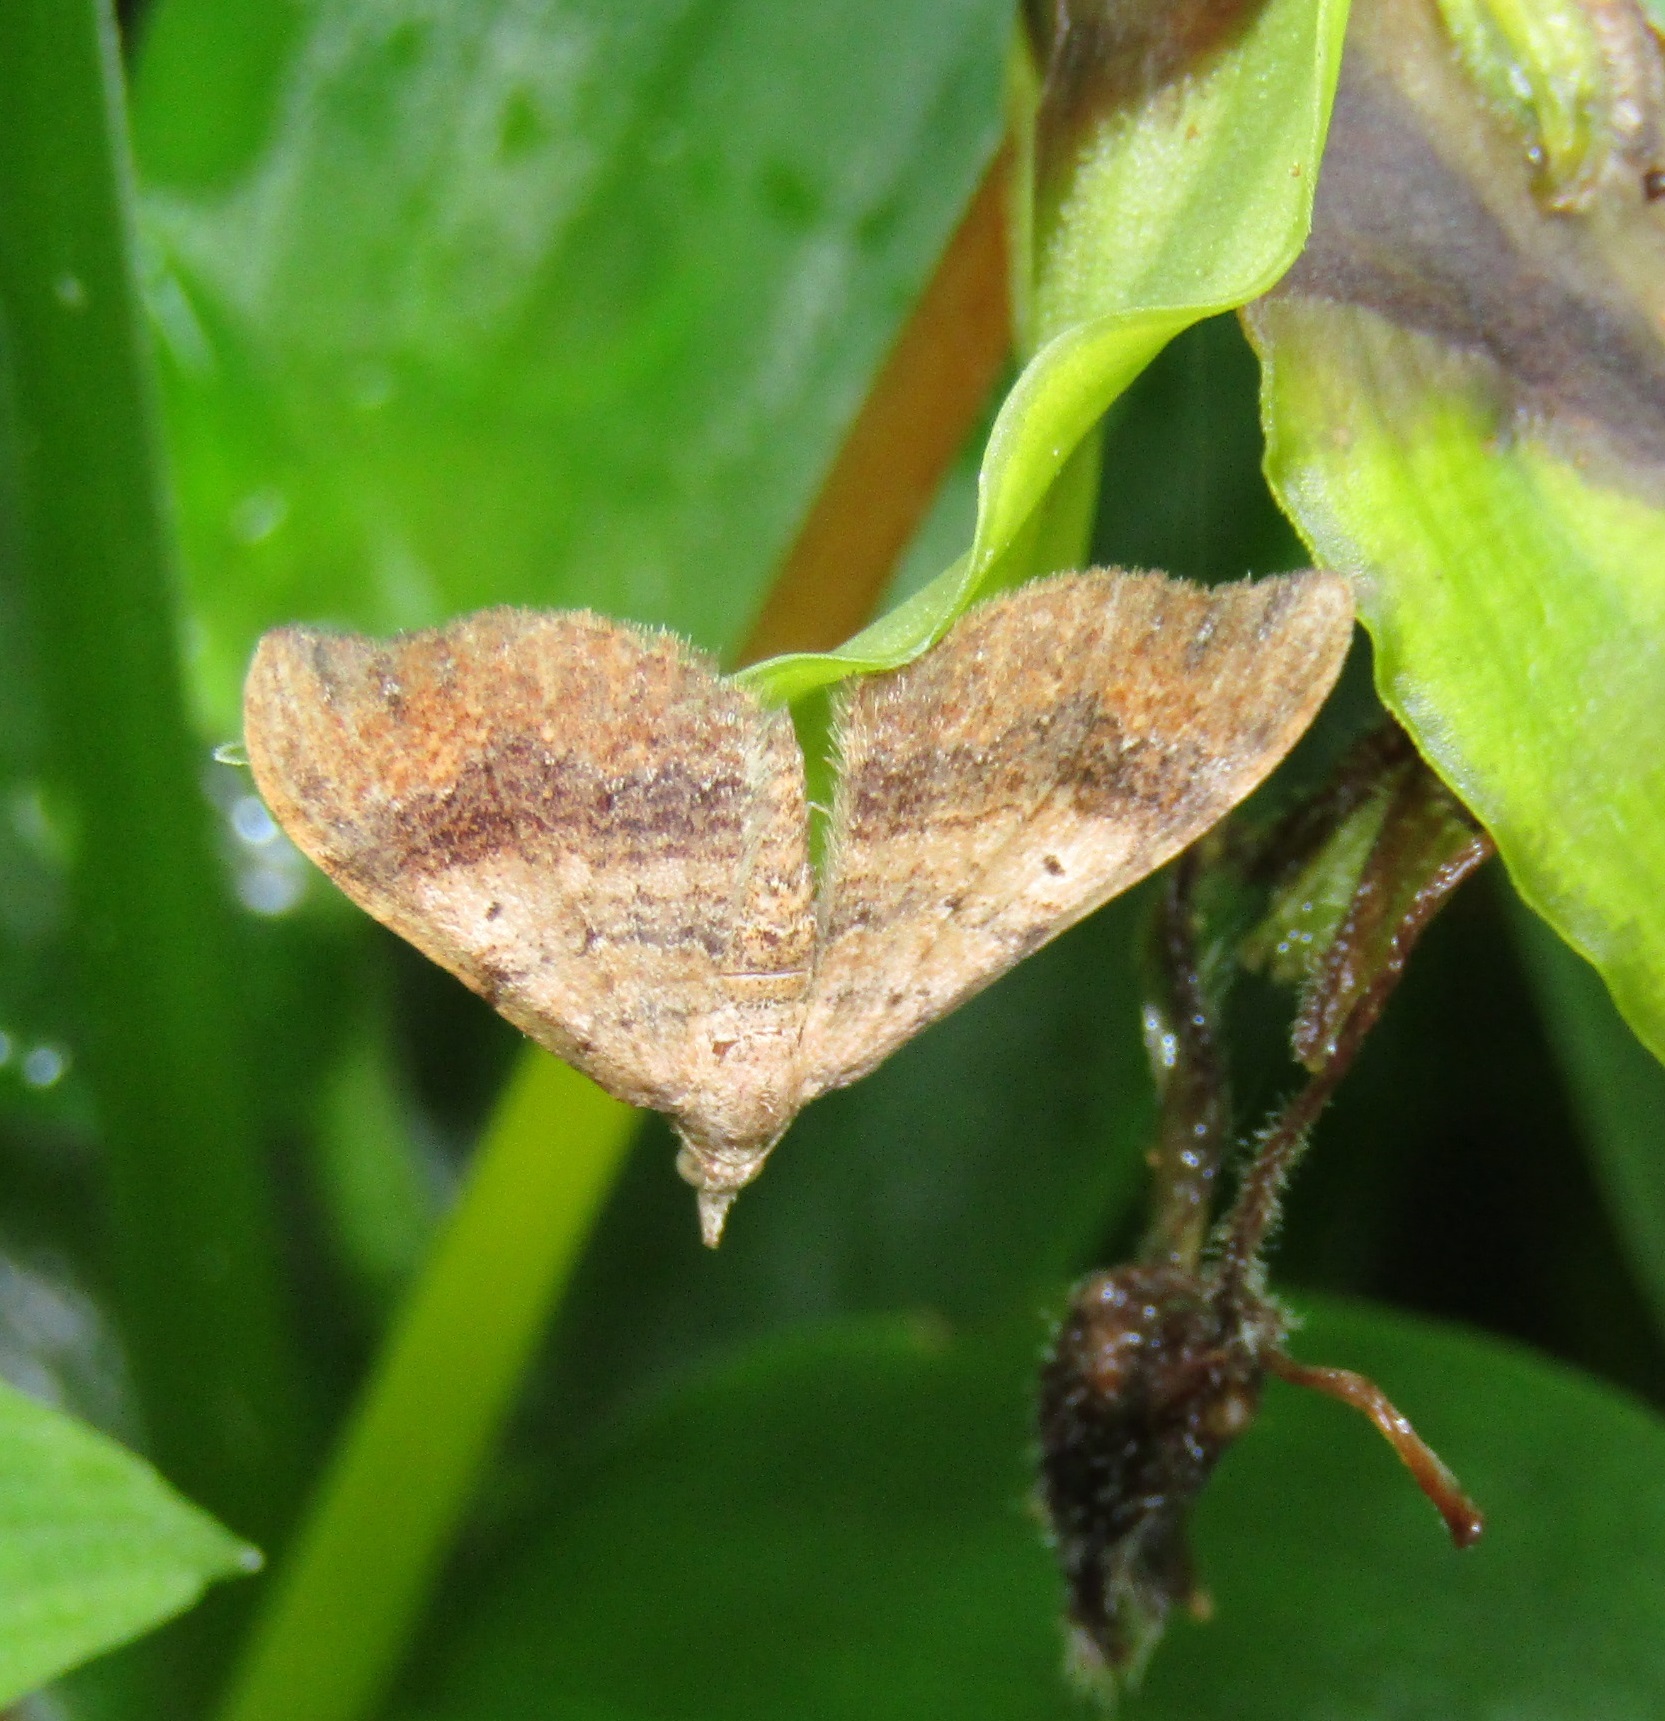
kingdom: Animalia
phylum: Arthropoda
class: Insecta
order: Lepidoptera
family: Geometridae
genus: Homodotis
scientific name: Homodotis megaspilata
